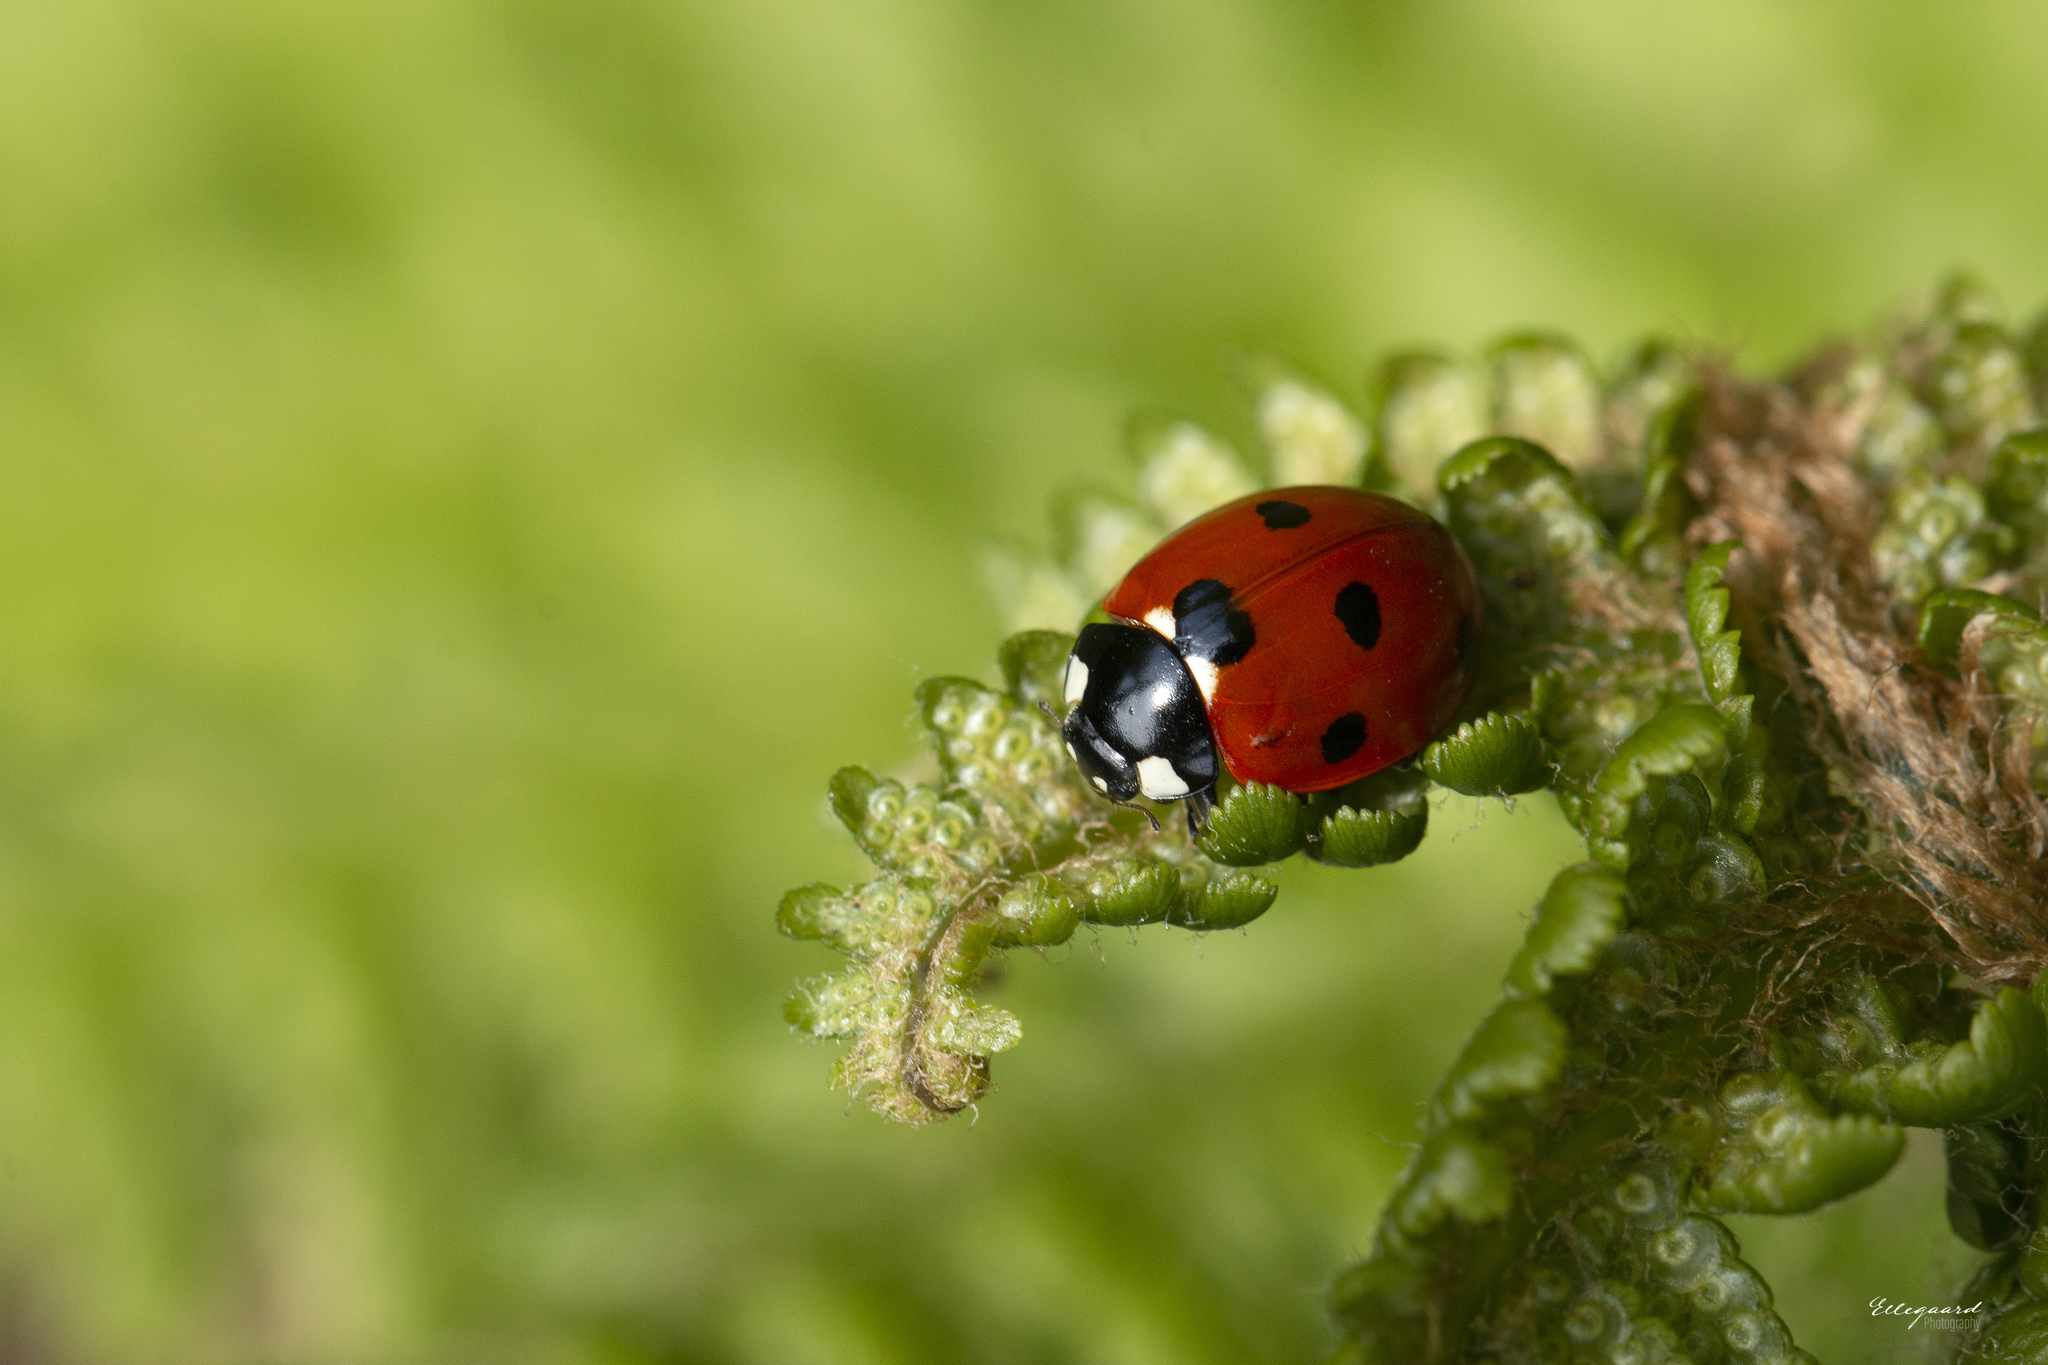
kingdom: Animalia
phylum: Arthropoda
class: Insecta
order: Coleoptera
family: Coccinellidae
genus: Coccinella
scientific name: Coccinella septempunctata
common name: Sevenspotted lady beetle
